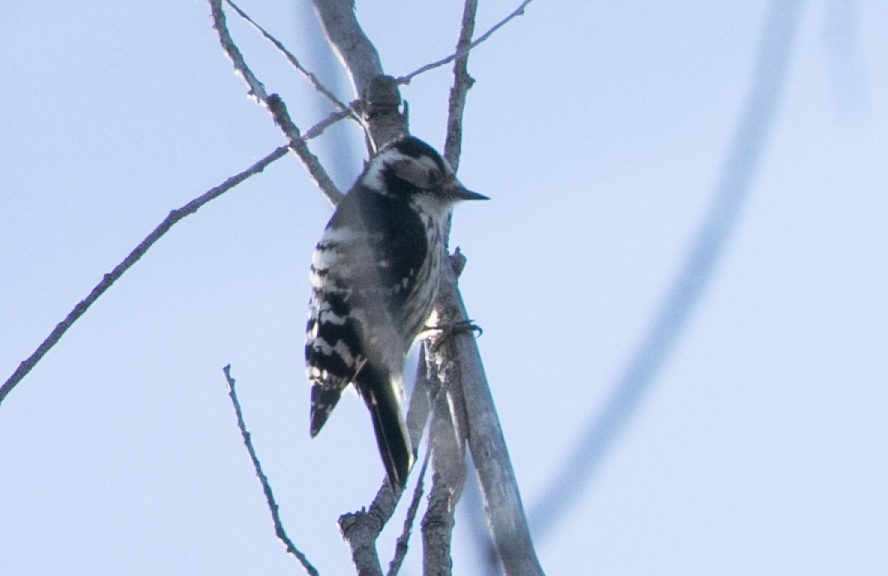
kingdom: Animalia
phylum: Chordata
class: Aves
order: Piciformes
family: Picidae
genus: Dryobates
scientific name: Dryobates minor
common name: Lesser spotted woodpecker
